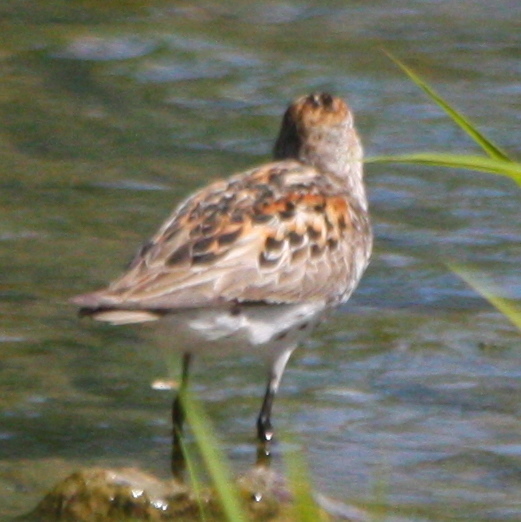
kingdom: Animalia
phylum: Chordata
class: Aves
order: Charadriiformes
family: Scolopacidae
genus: Calidris
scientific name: Calidris mauri
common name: Western sandpiper
